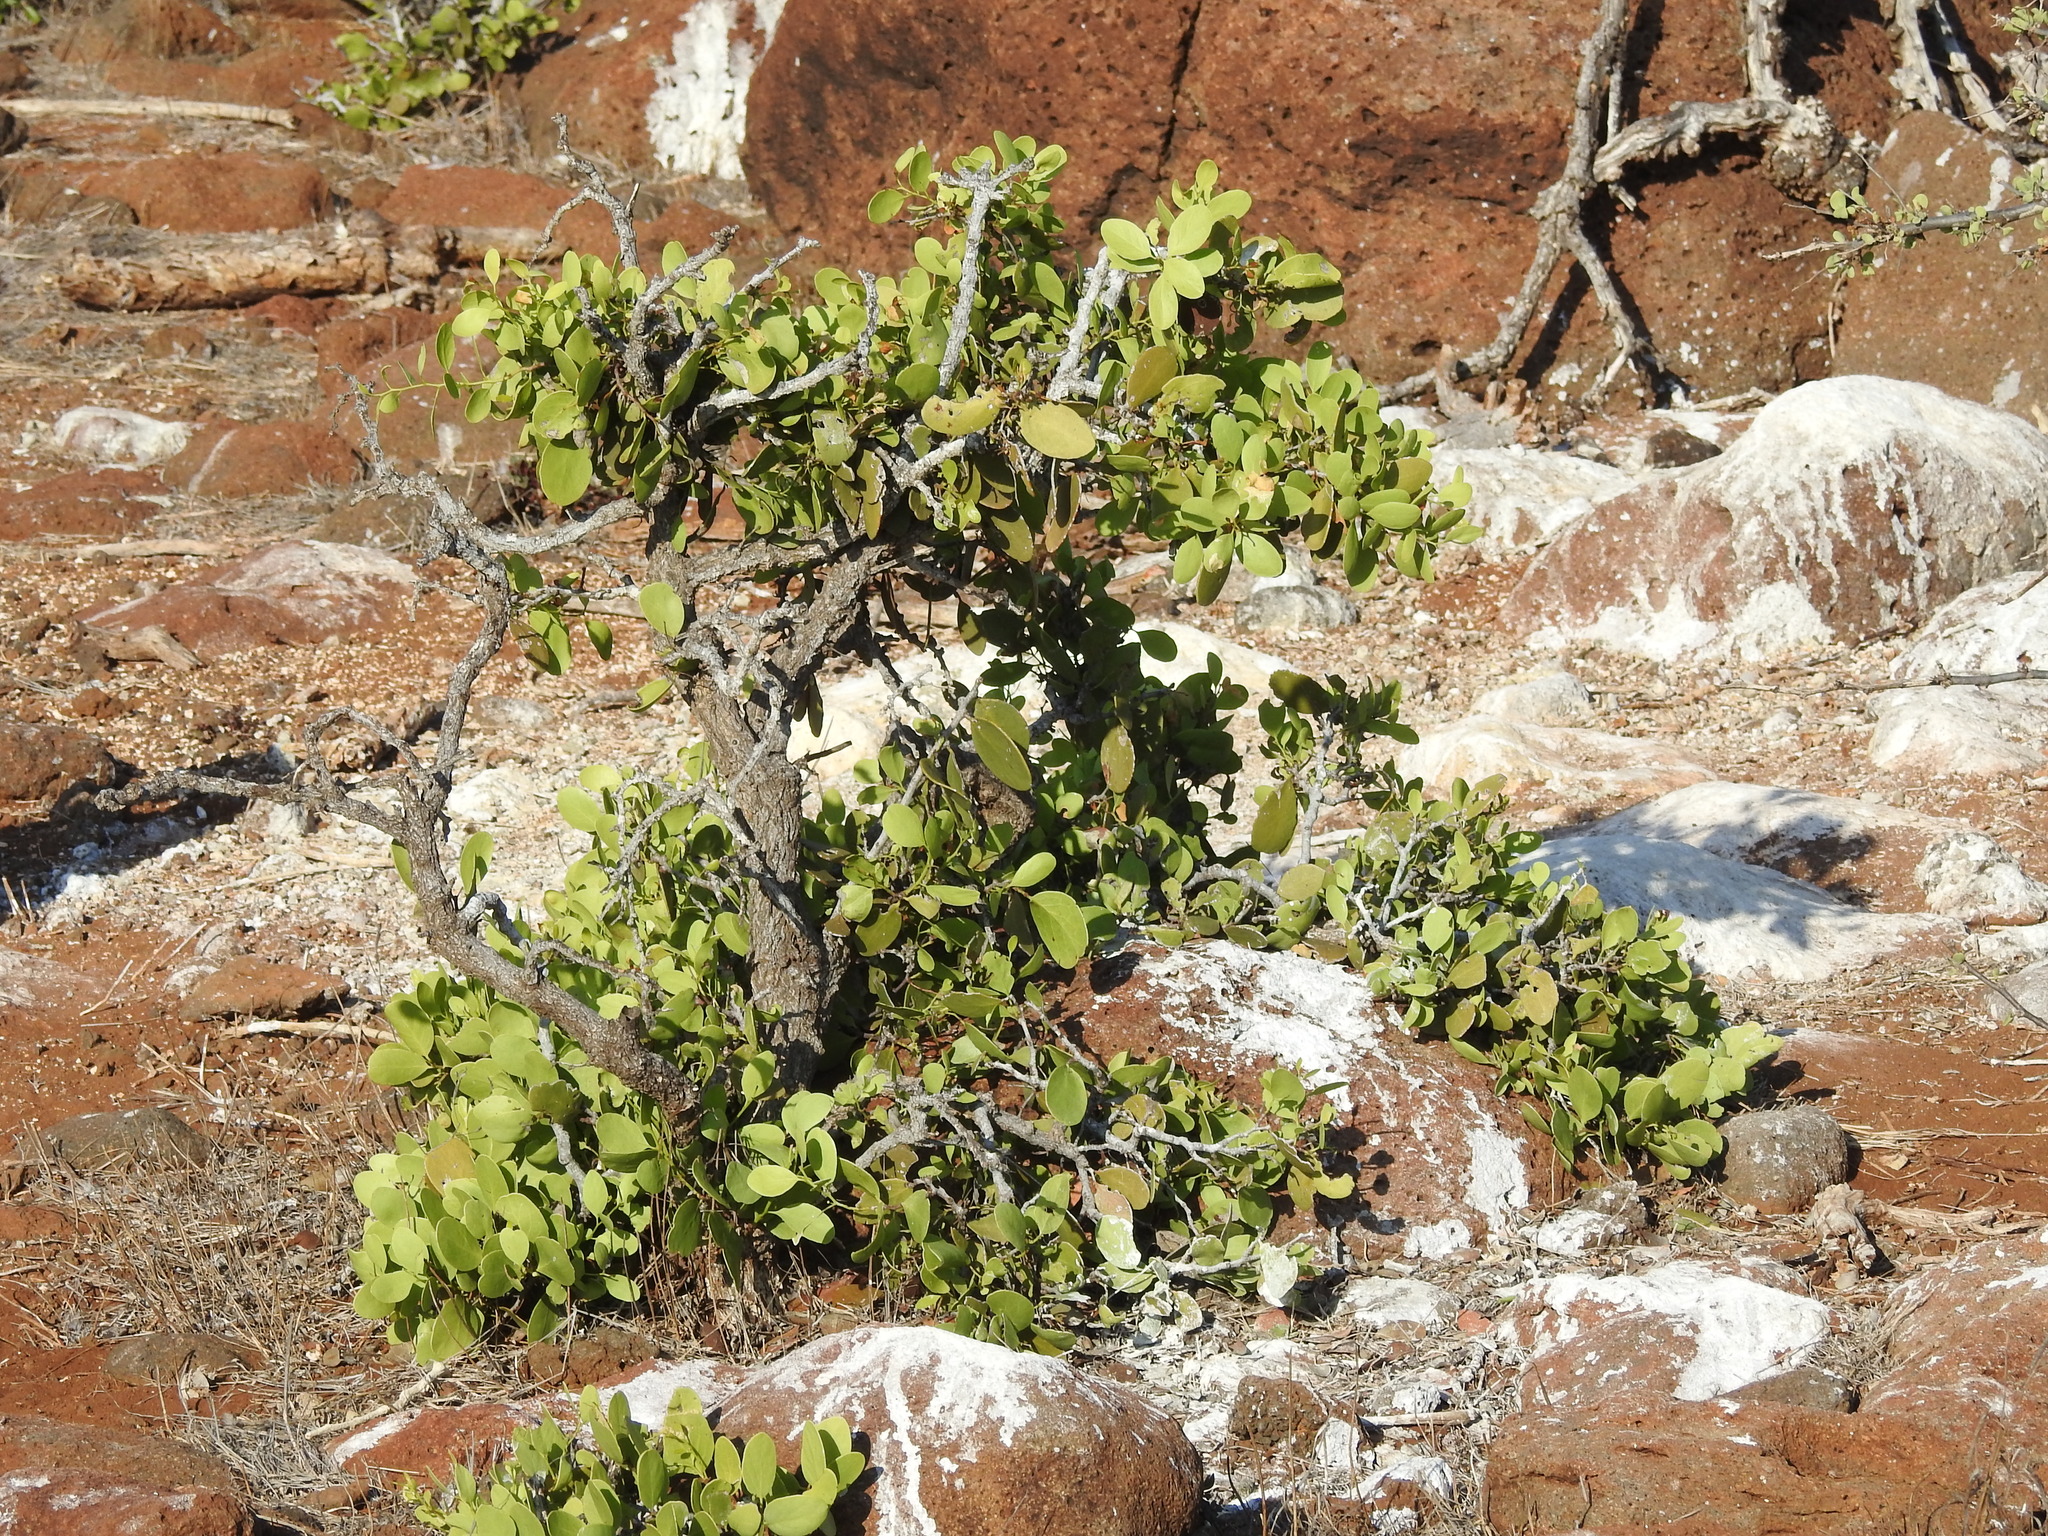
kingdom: Plantae
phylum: Tracheophyta
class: Magnoliopsida
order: Celastrales
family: Celastraceae
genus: Tricerma
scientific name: Tricerma octogonum
